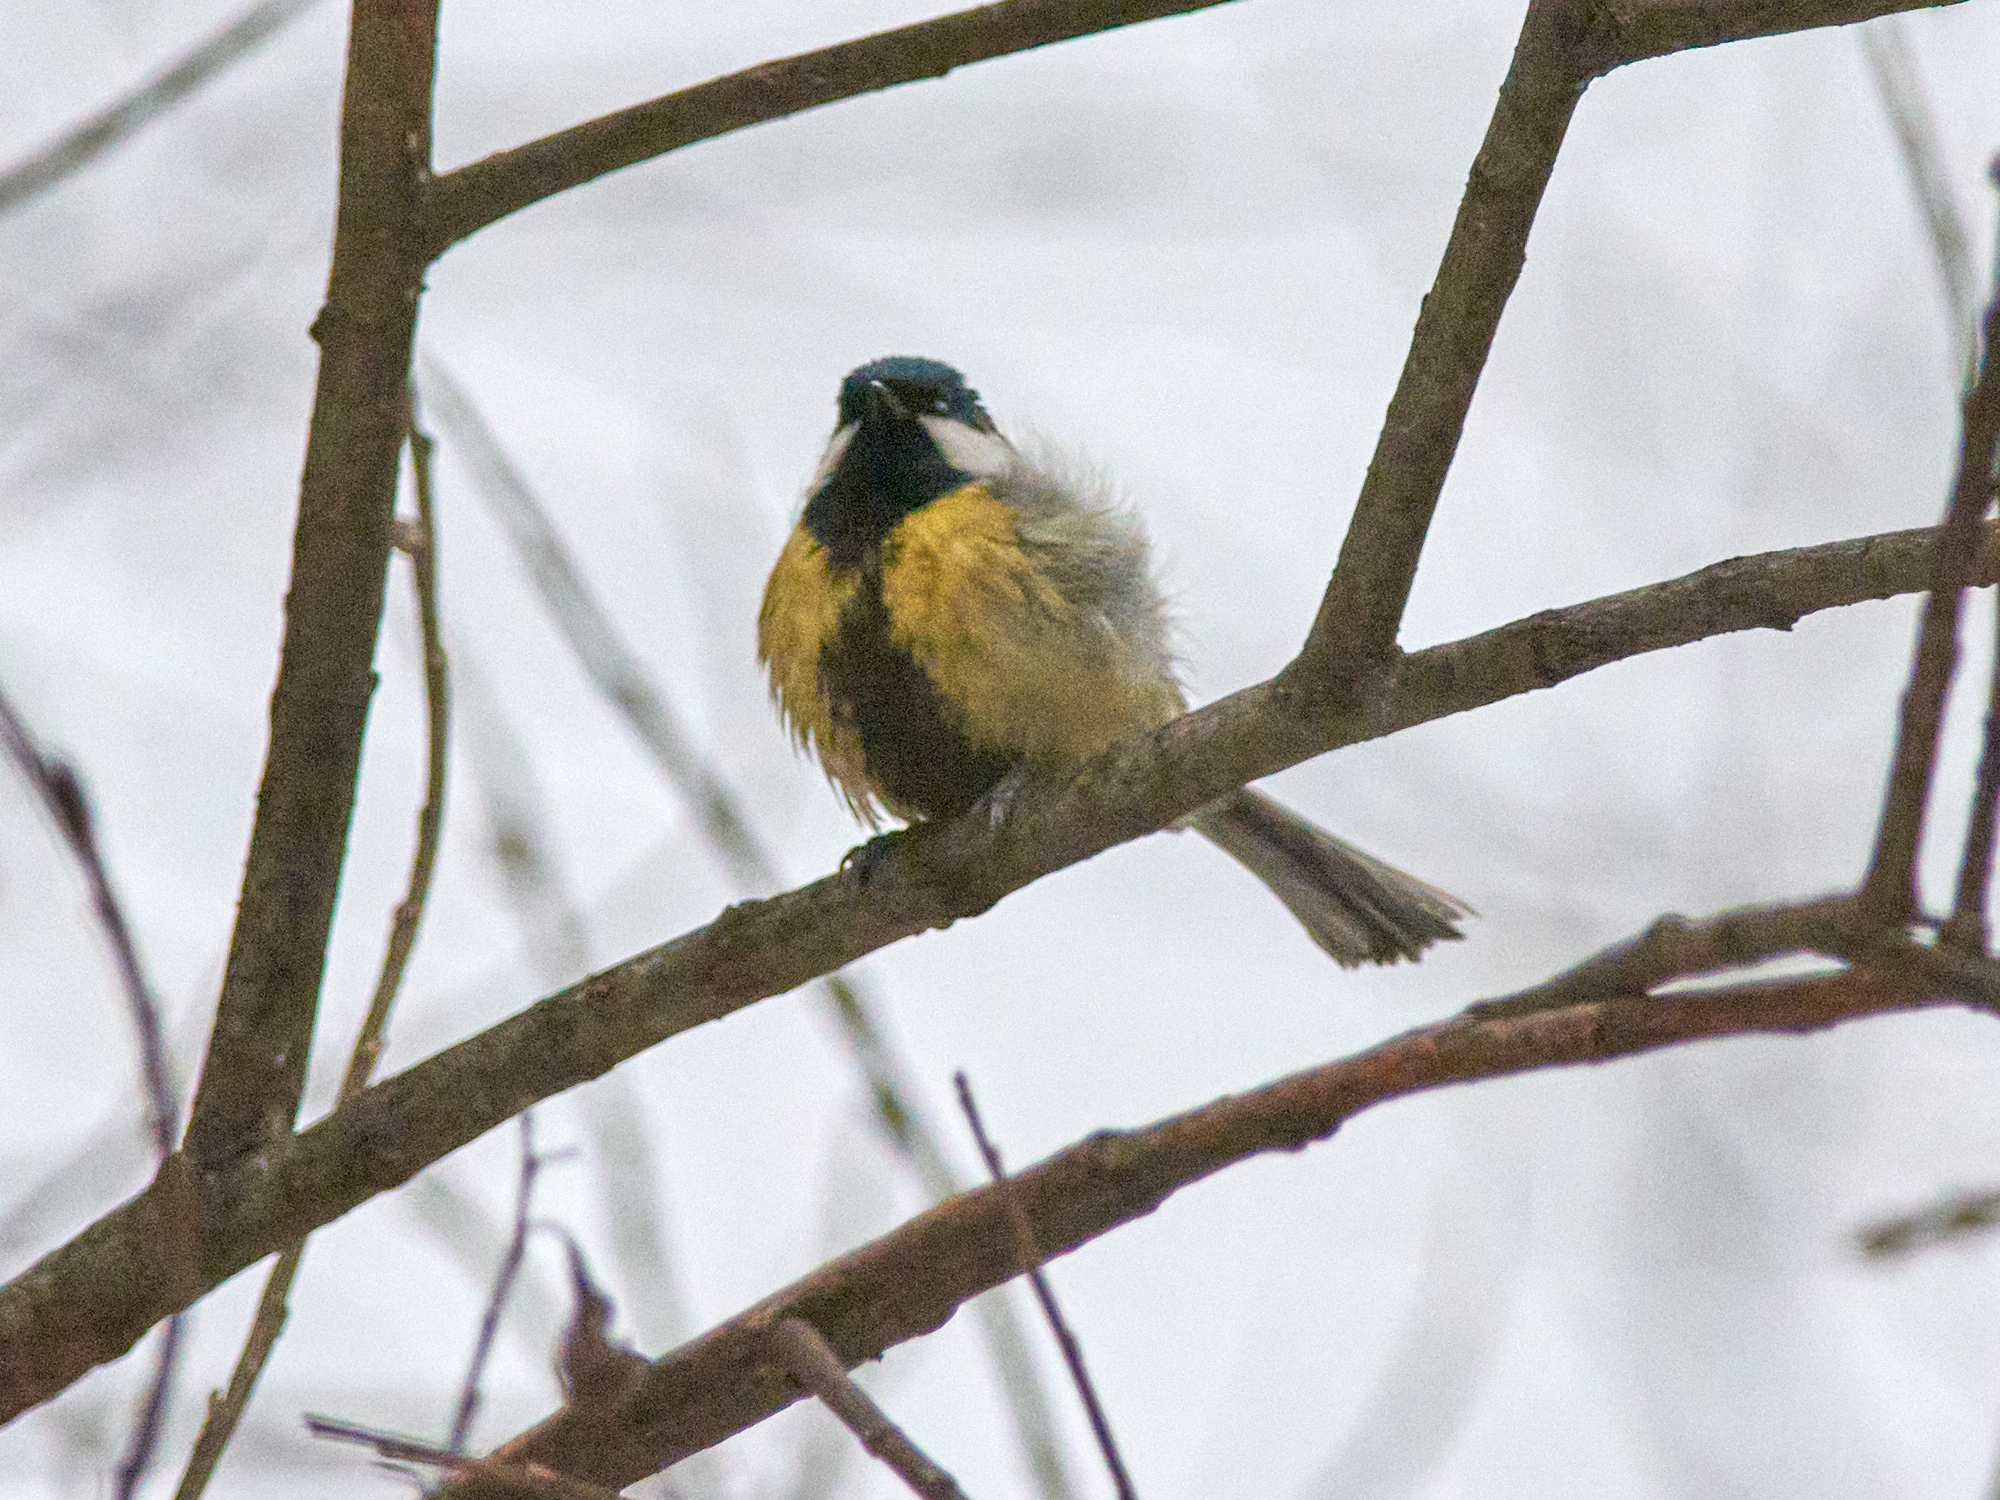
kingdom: Animalia
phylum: Chordata
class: Aves
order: Passeriformes
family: Paridae
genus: Parus
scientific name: Parus major
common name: Great tit
